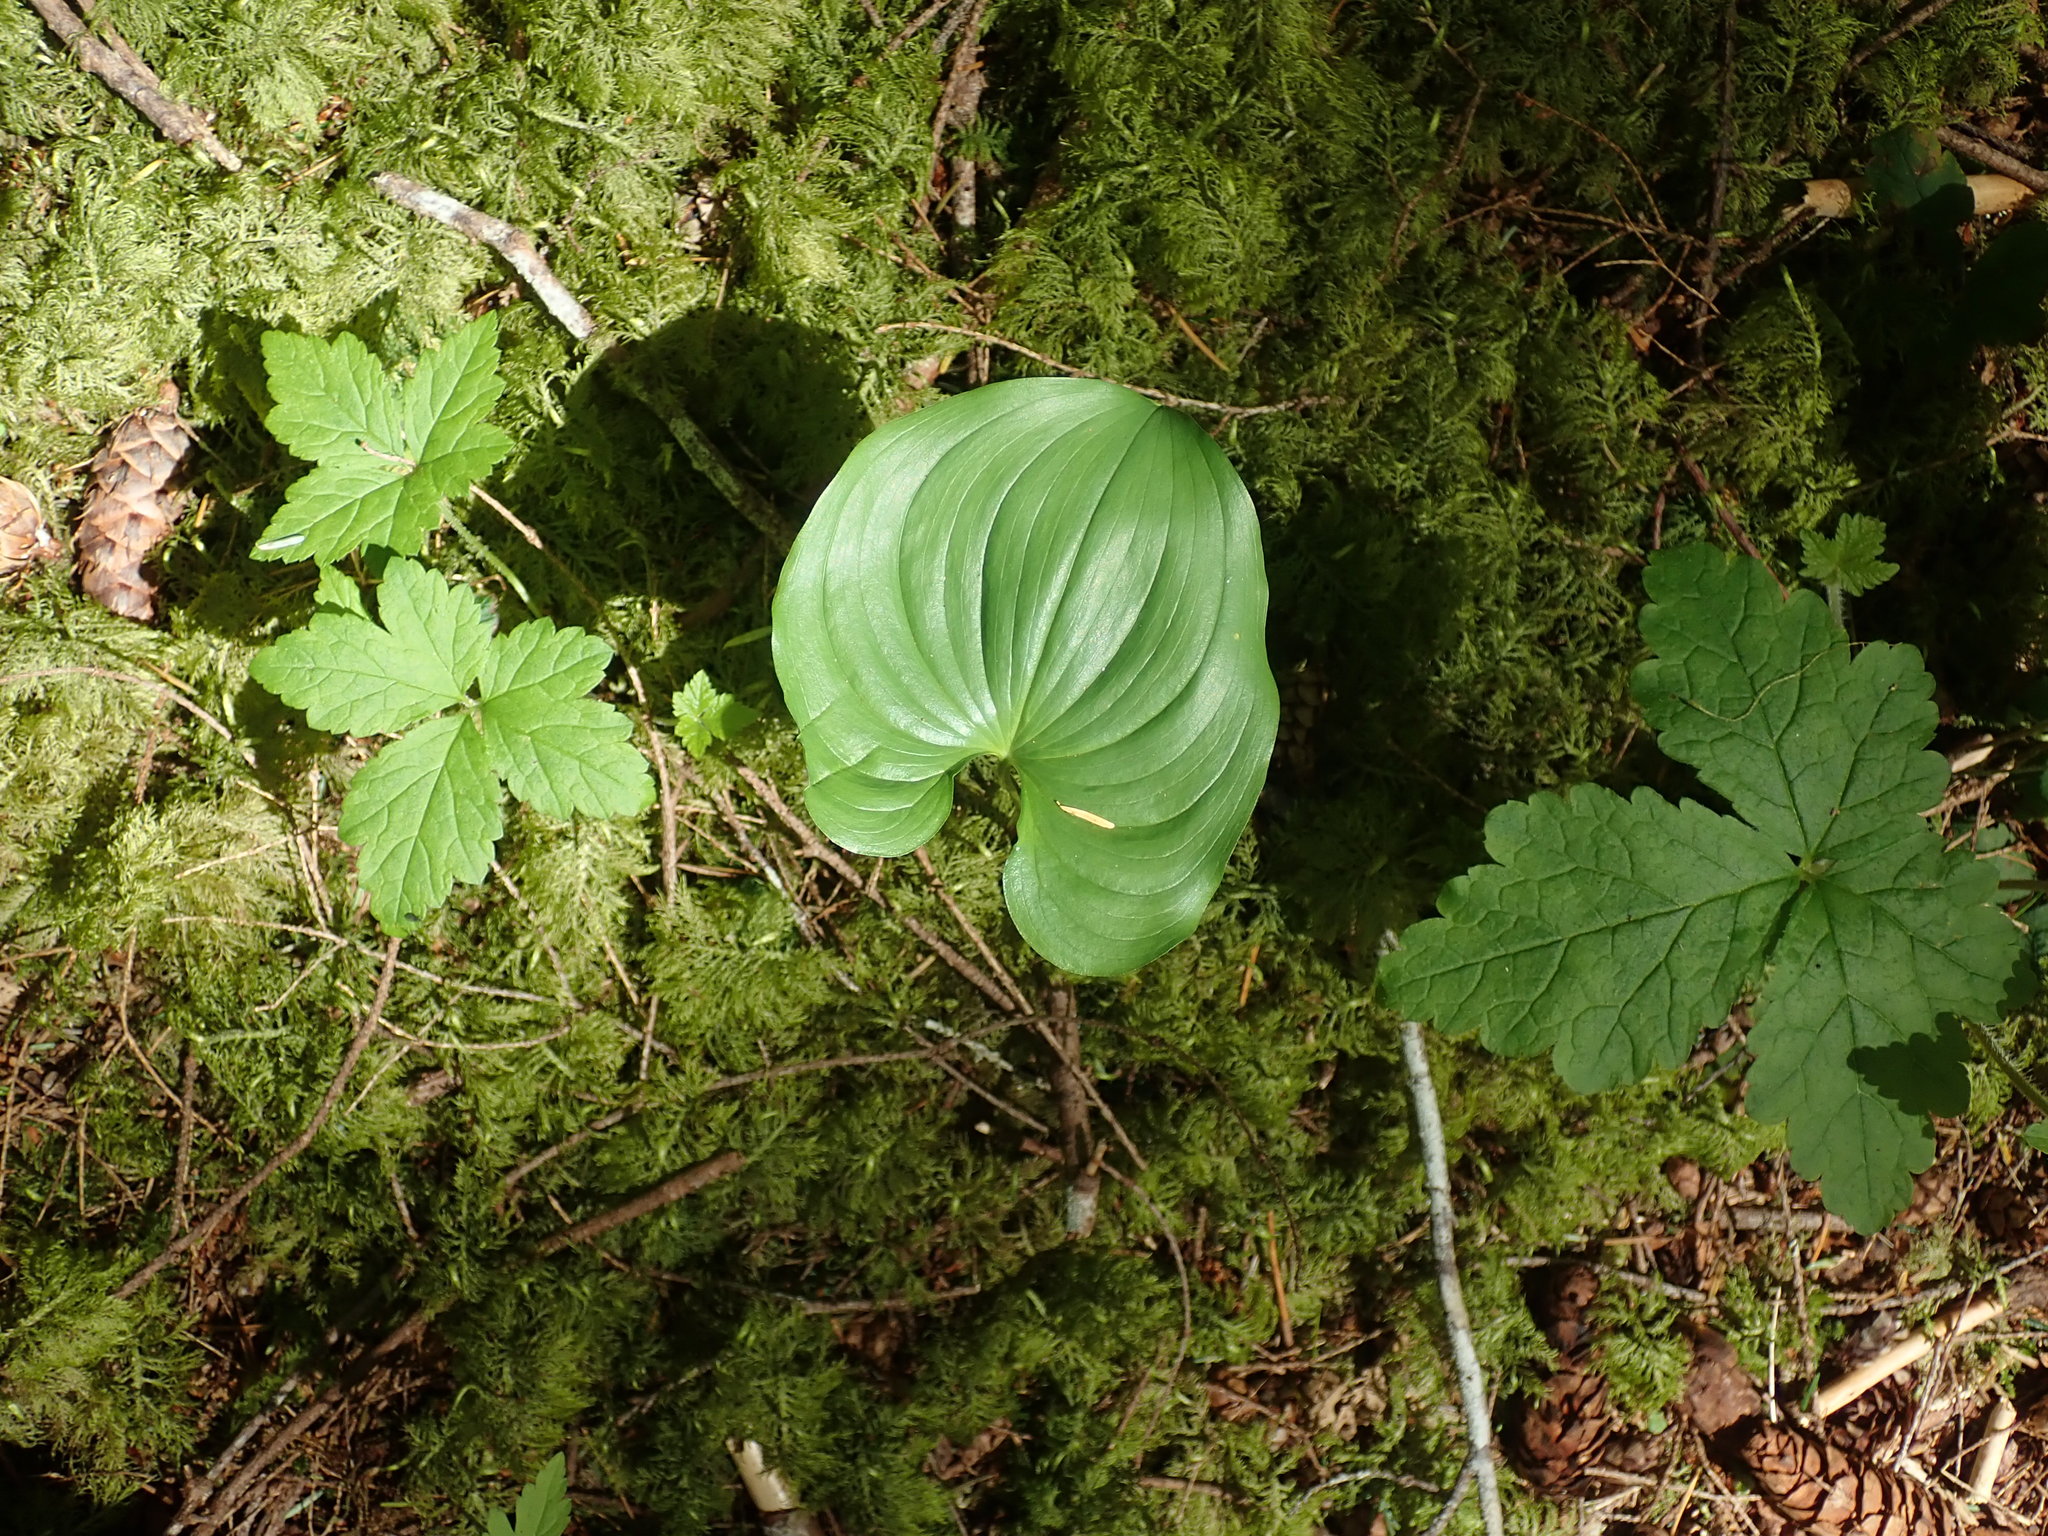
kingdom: Plantae
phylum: Tracheophyta
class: Liliopsida
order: Asparagales
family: Asparagaceae
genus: Maianthemum
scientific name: Maianthemum dilatatum
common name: False lily-of-the-valley
